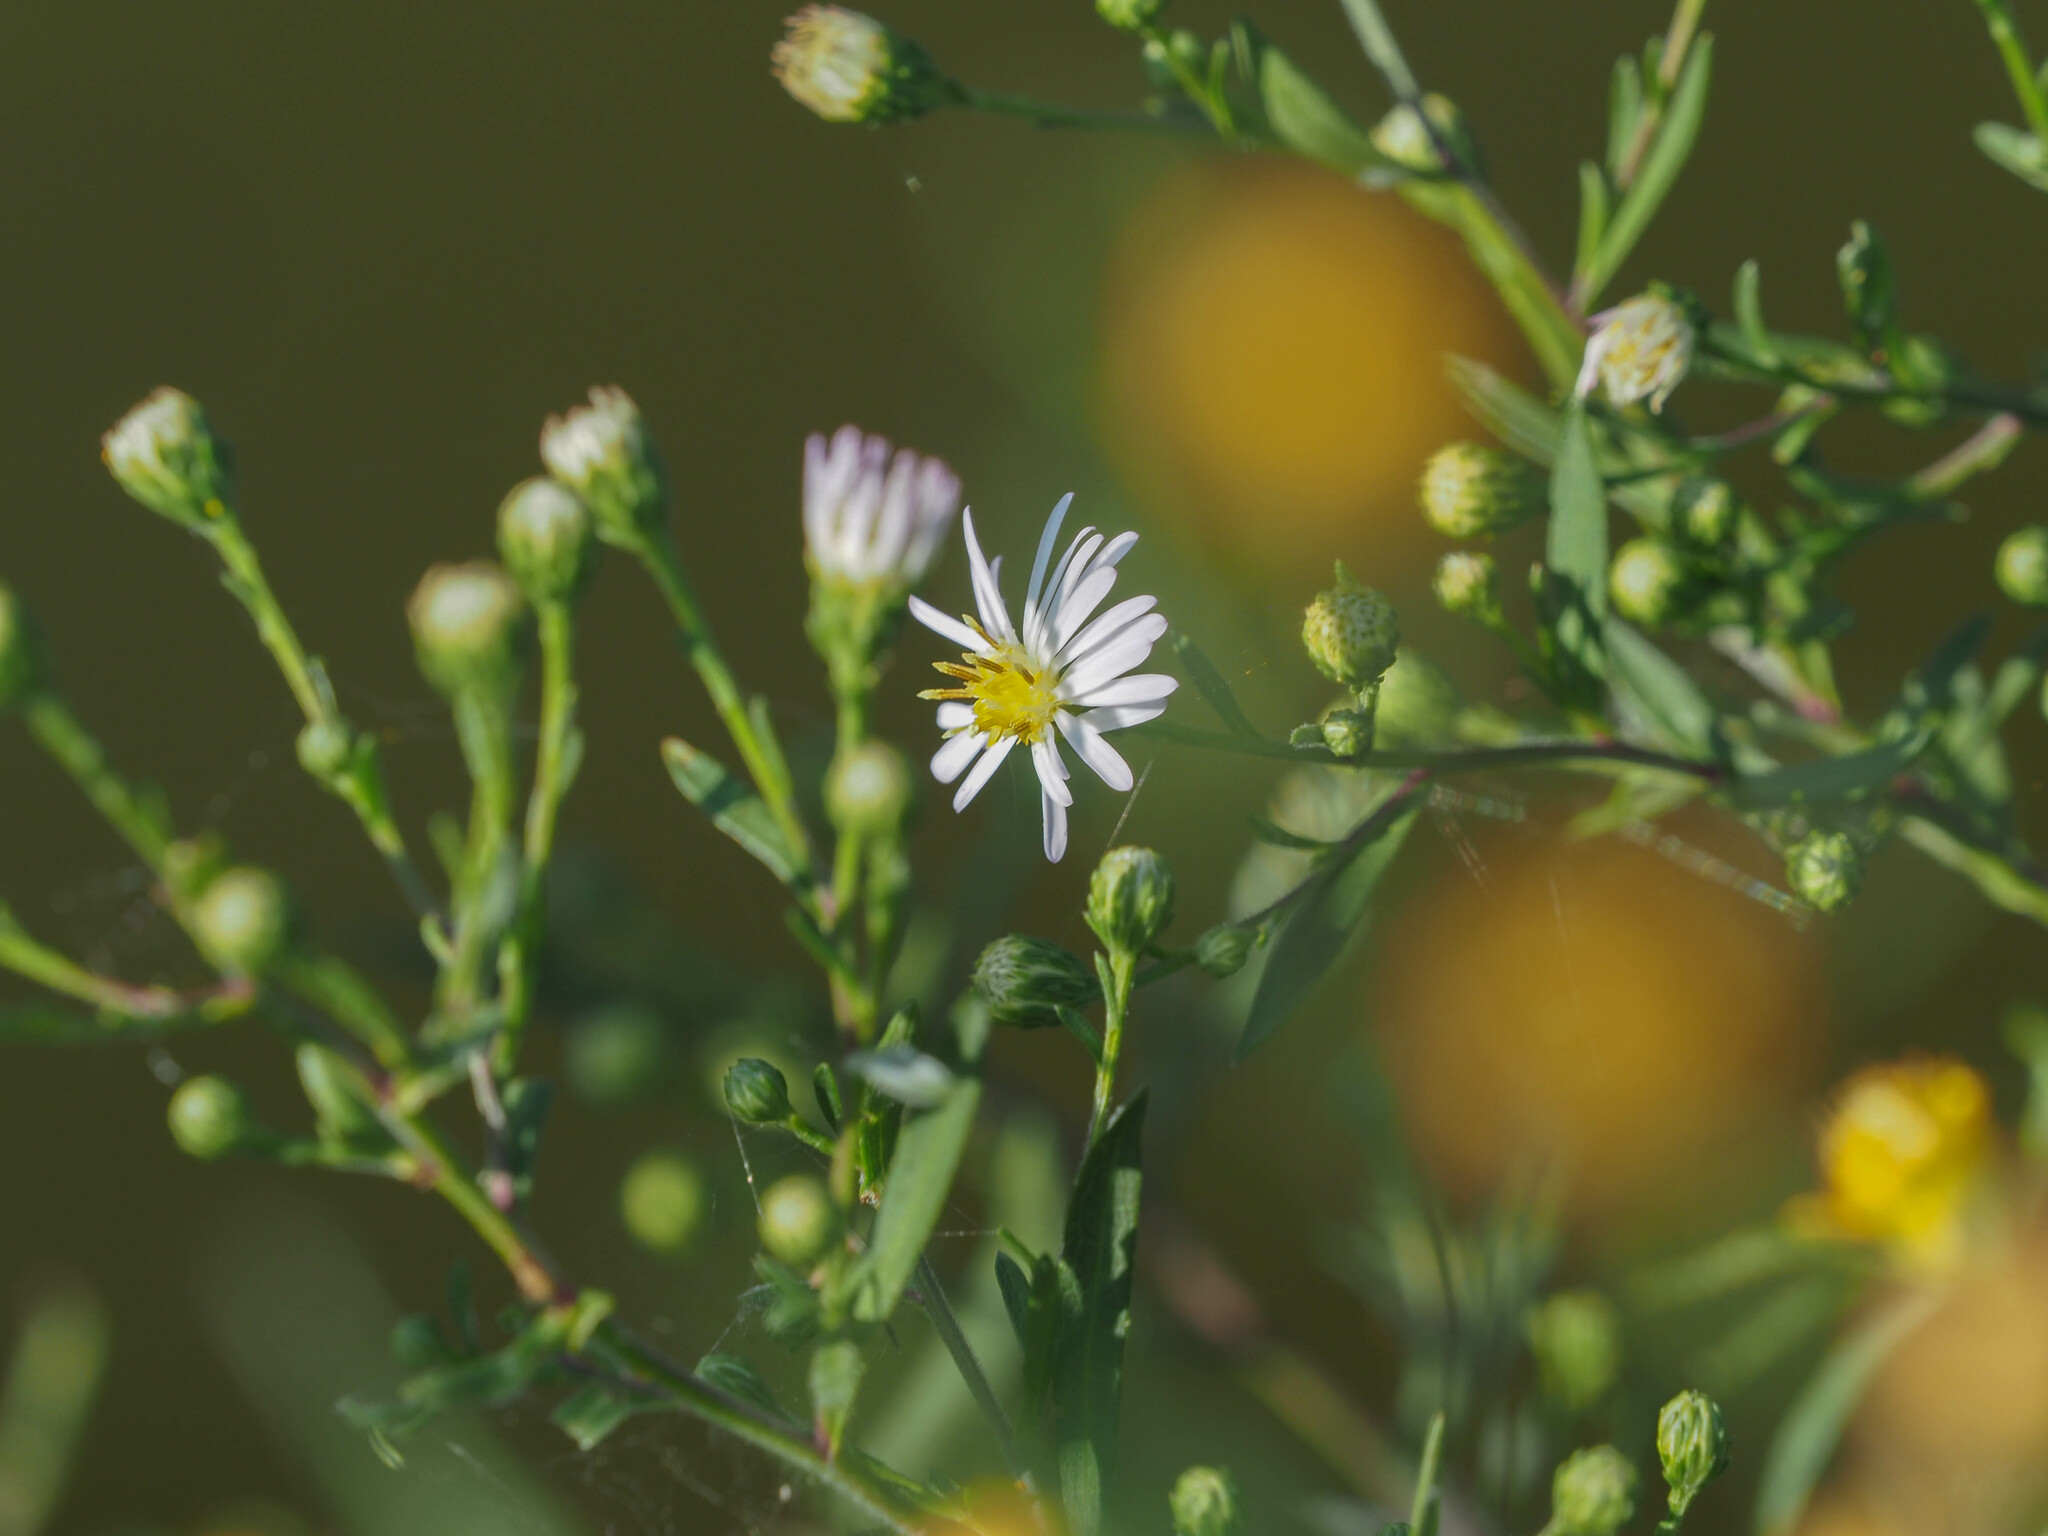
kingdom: Plantae
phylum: Tracheophyta
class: Magnoliopsida
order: Asterales
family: Asteraceae
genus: Symphyotrichum
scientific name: Symphyotrichum lanceolatum
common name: Panicled aster
